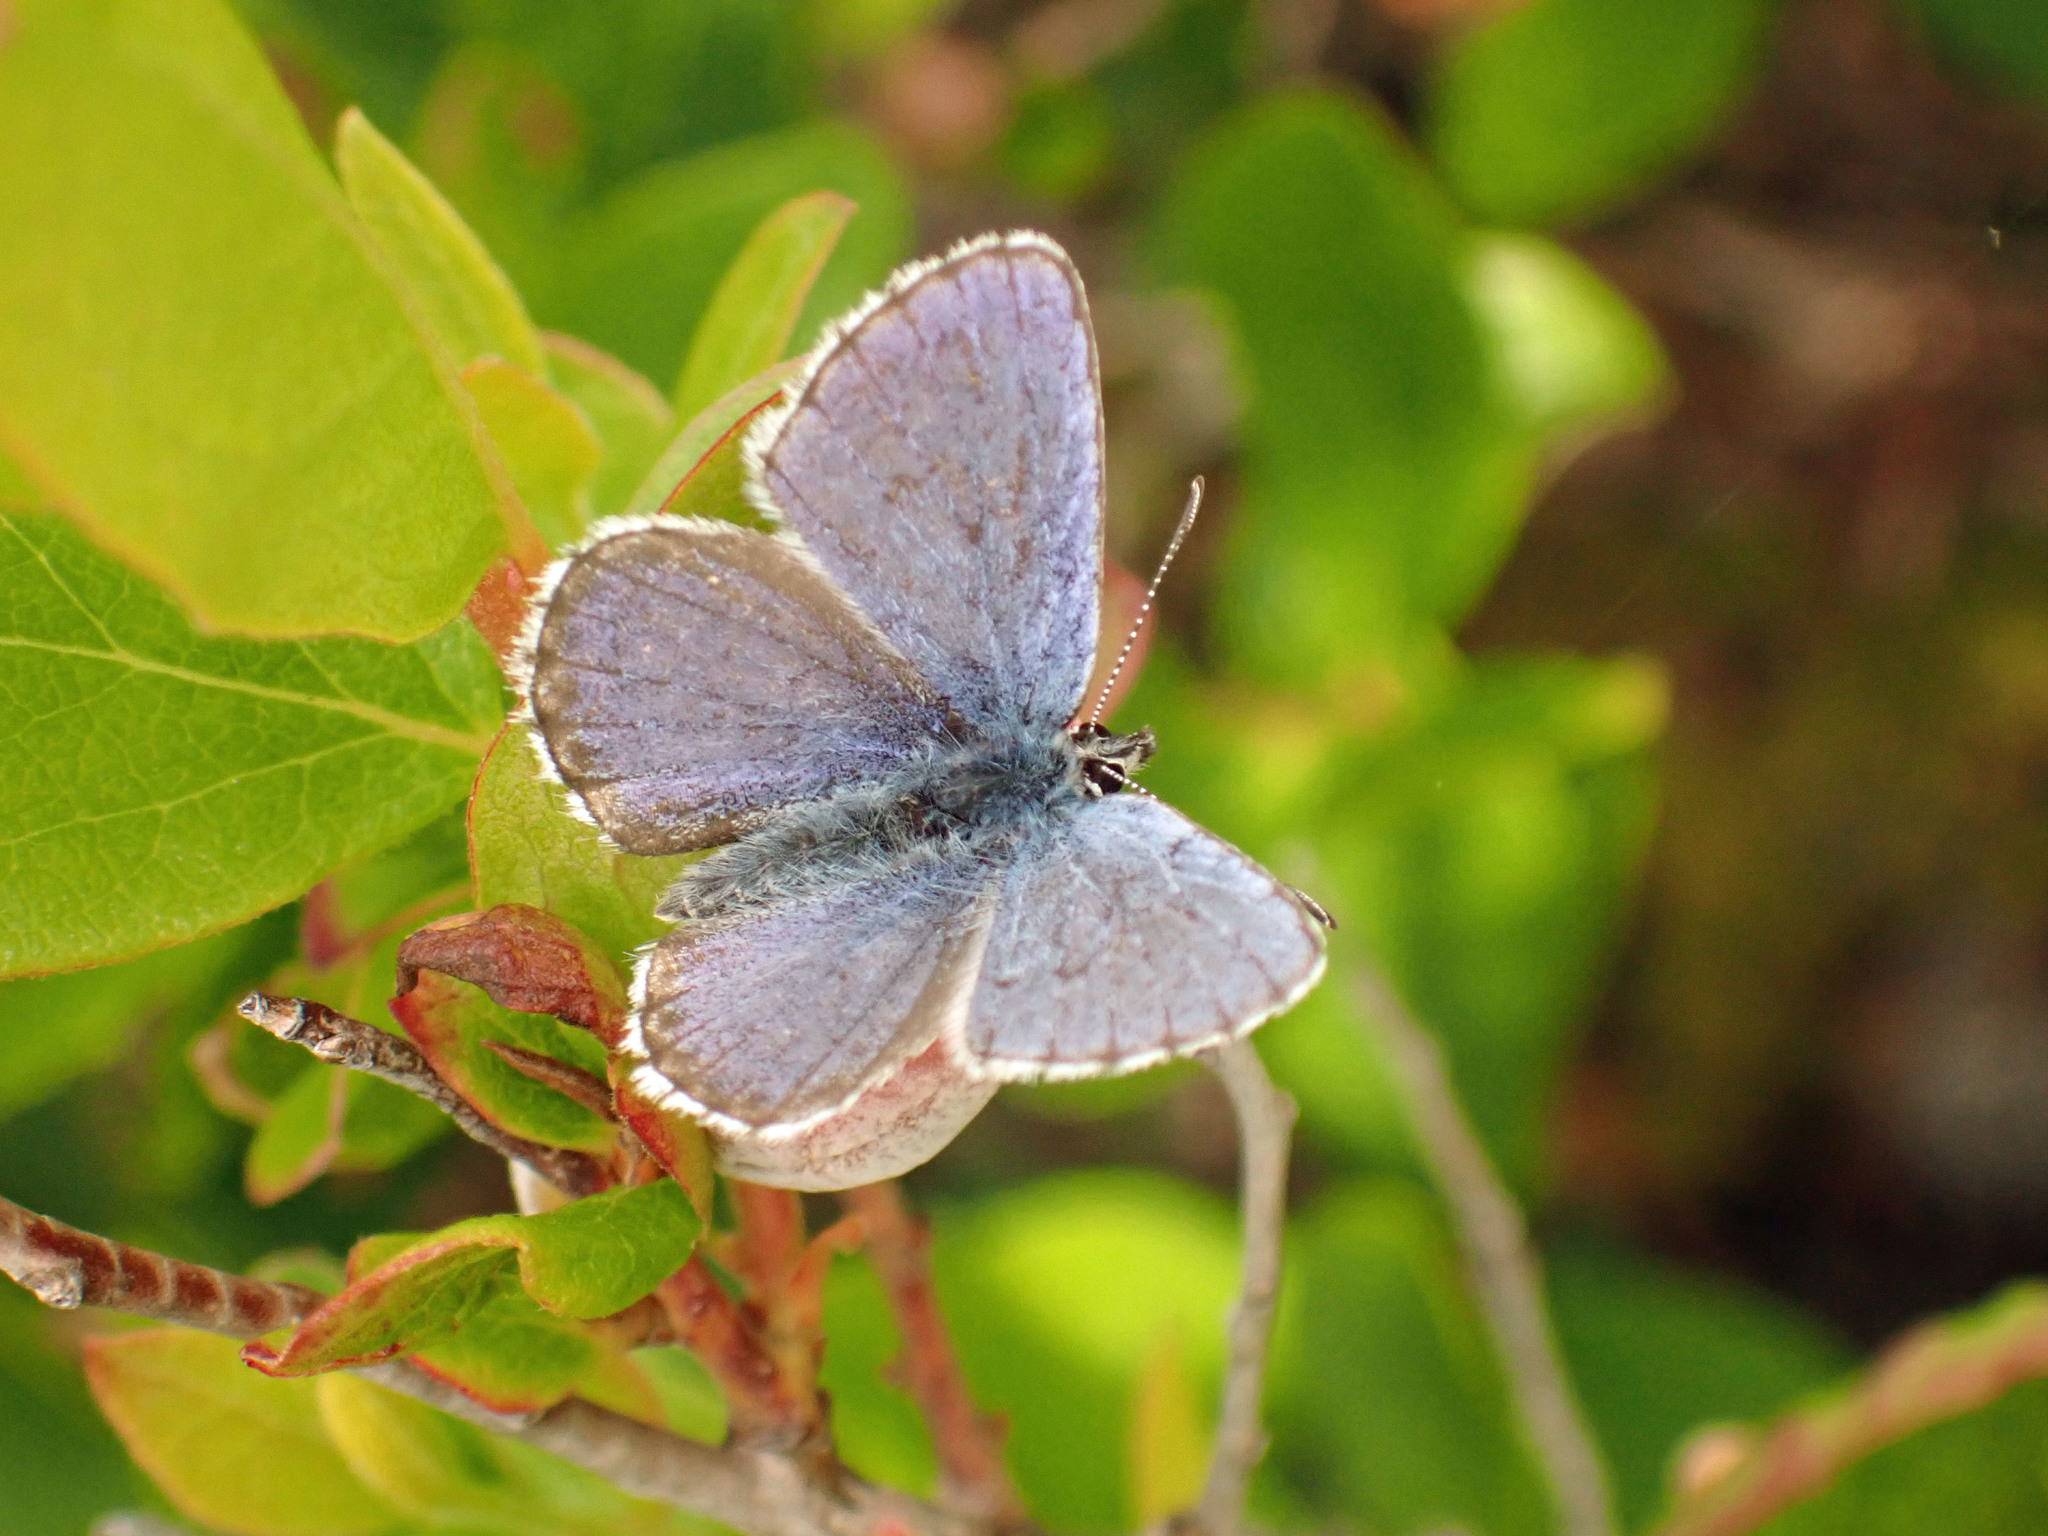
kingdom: Animalia
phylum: Arthropoda
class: Insecta
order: Lepidoptera
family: Lycaenidae
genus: Lycaeides
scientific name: Lycaeides idas
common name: Northern blue
